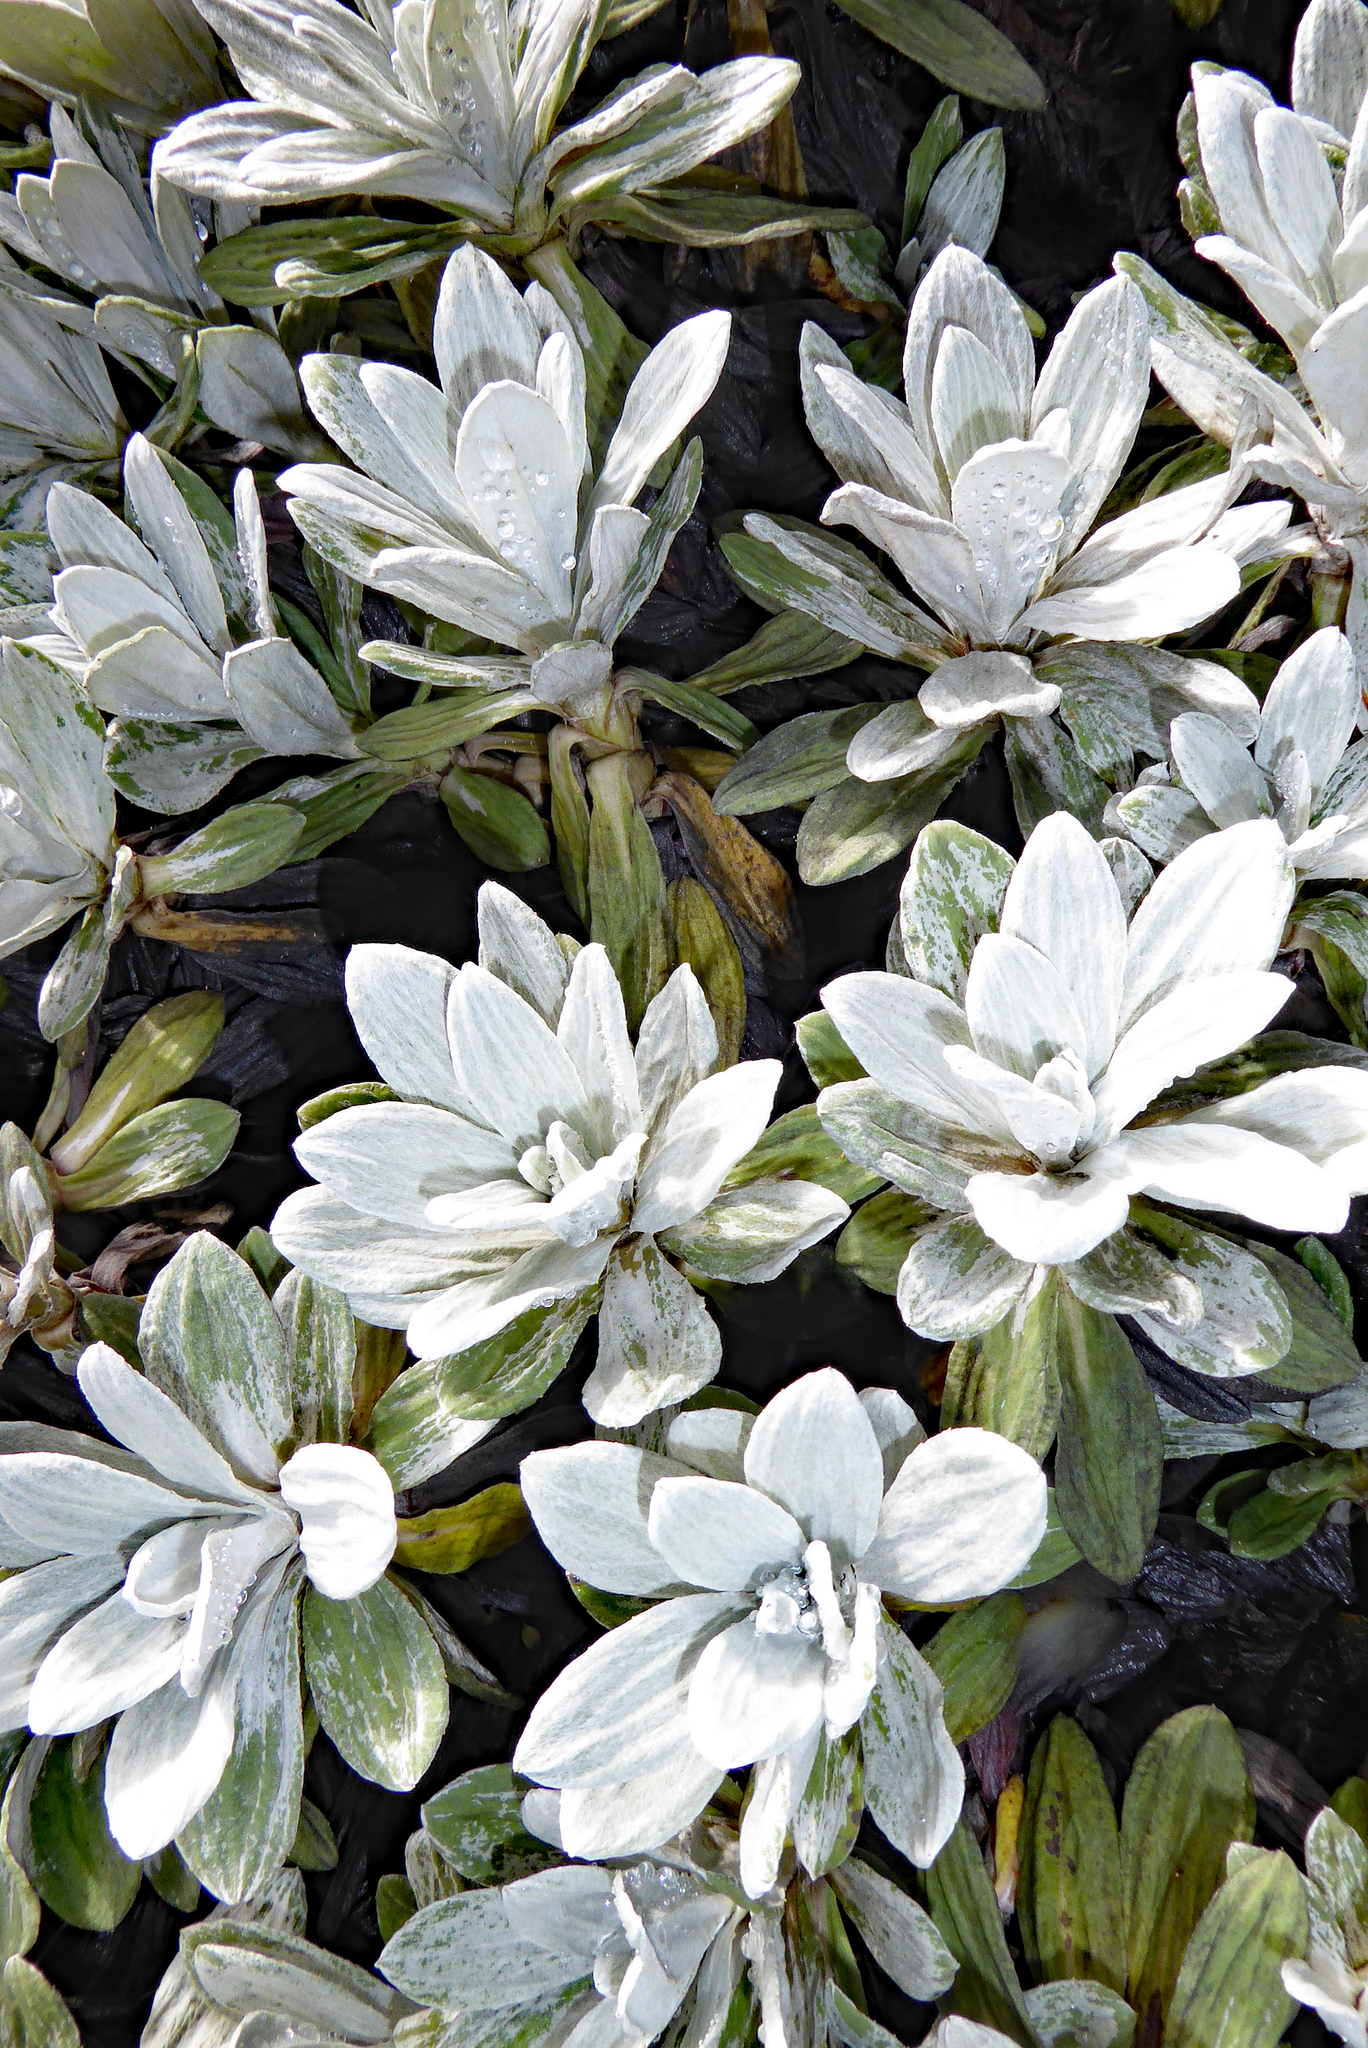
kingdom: Plantae
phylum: Tracheophyta
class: Magnoliopsida
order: Asterales
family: Asteraceae
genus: Celmisia
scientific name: Celmisia incana
